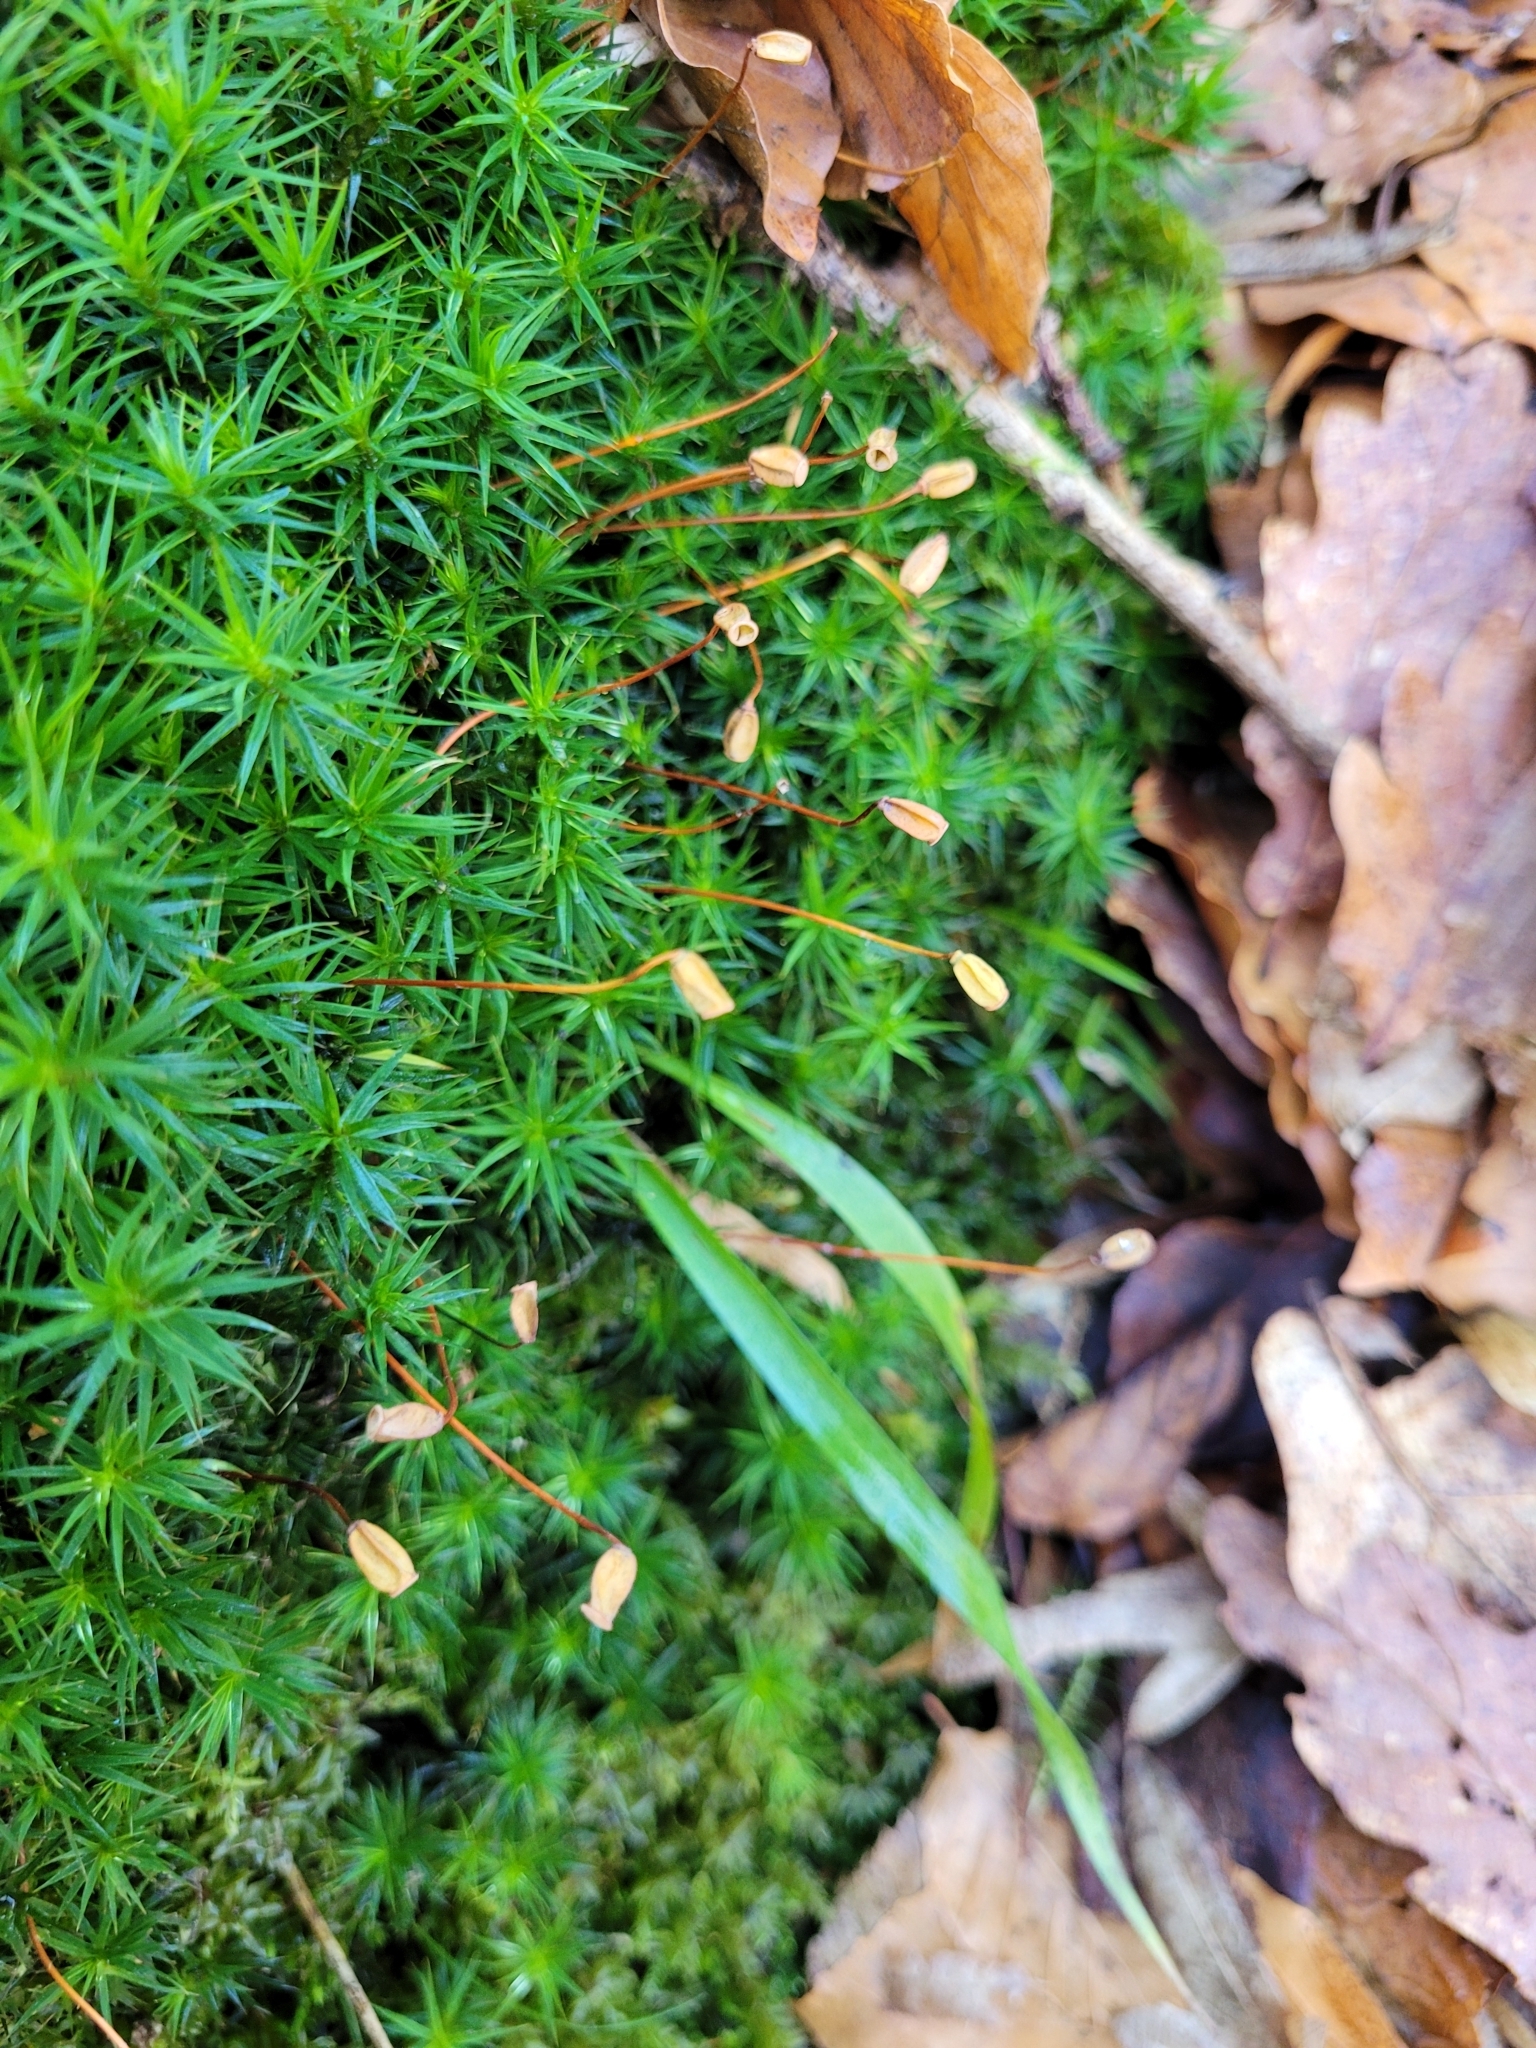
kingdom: Plantae
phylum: Bryophyta
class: Polytrichopsida
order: Polytrichales
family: Polytrichaceae
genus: Polytrichum
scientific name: Polytrichum formosum
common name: Bank haircap moss
